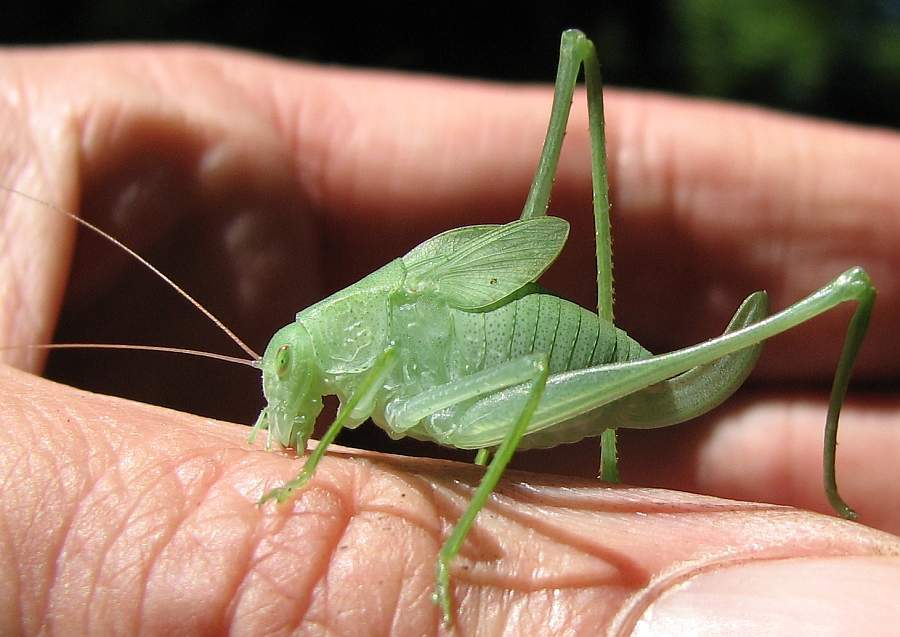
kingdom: Animalia
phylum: Arthropoda
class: Insecta
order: Orthoptera
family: Tettigoniidae
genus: Amblycorypha
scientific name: Amblycorypha oblongifolia
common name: Oblong-winged katydid
